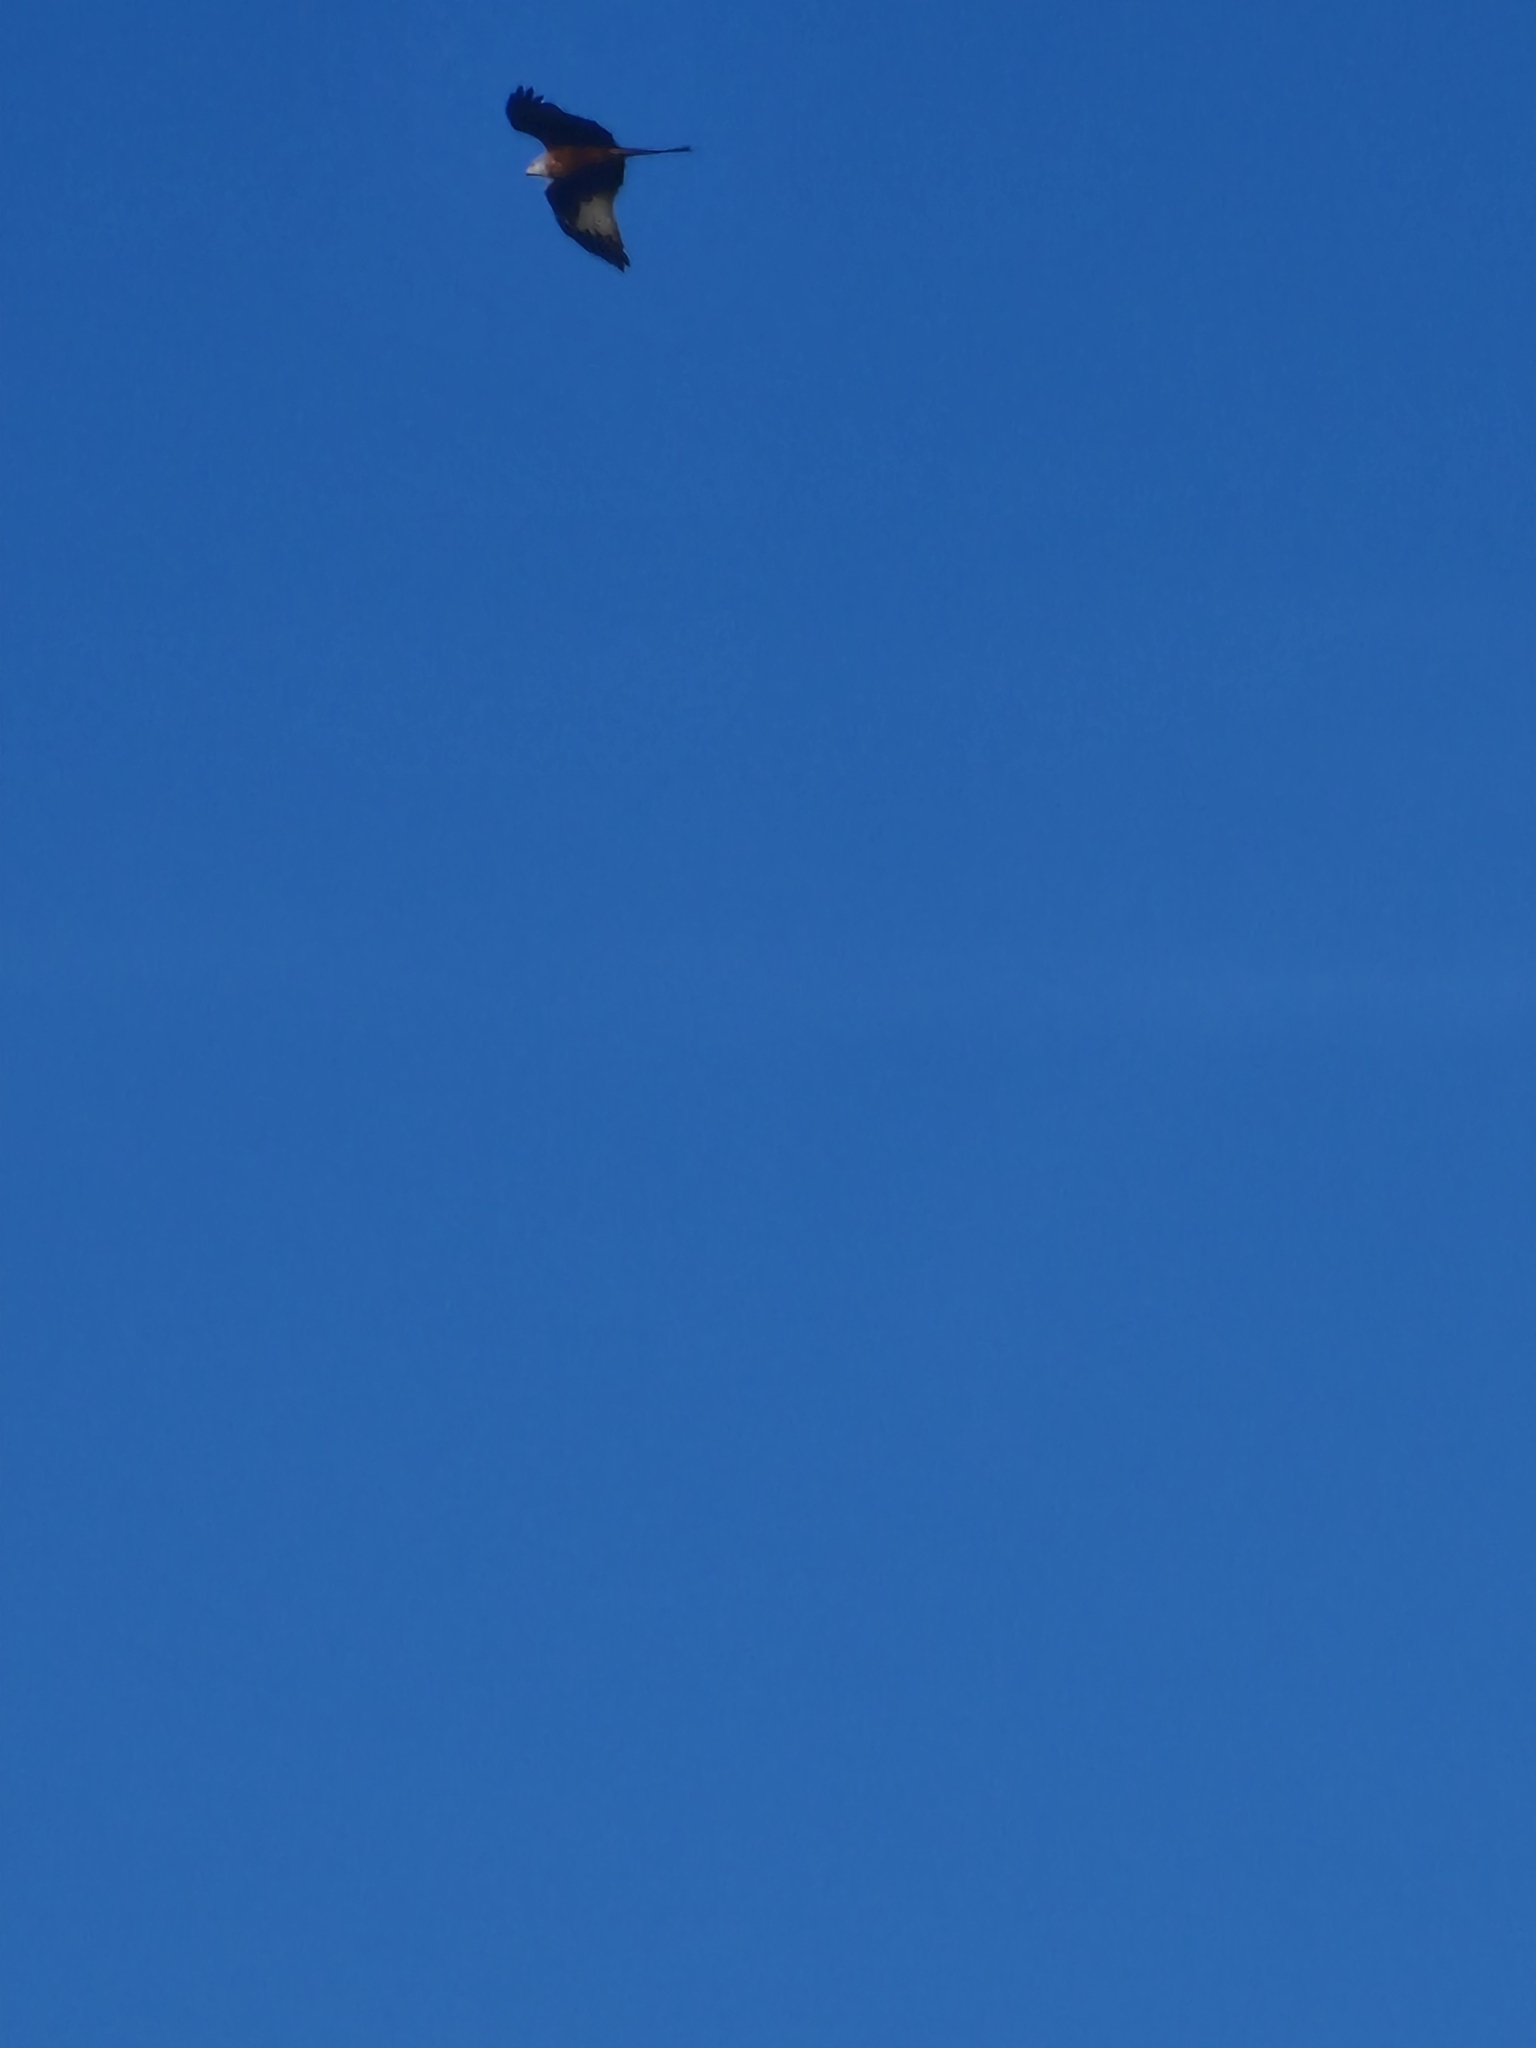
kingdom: Animalia
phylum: Chordata
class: Aves
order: Accipitriformes
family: Accipitridae
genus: Milvus
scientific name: Milvus milvus
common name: Red kite
